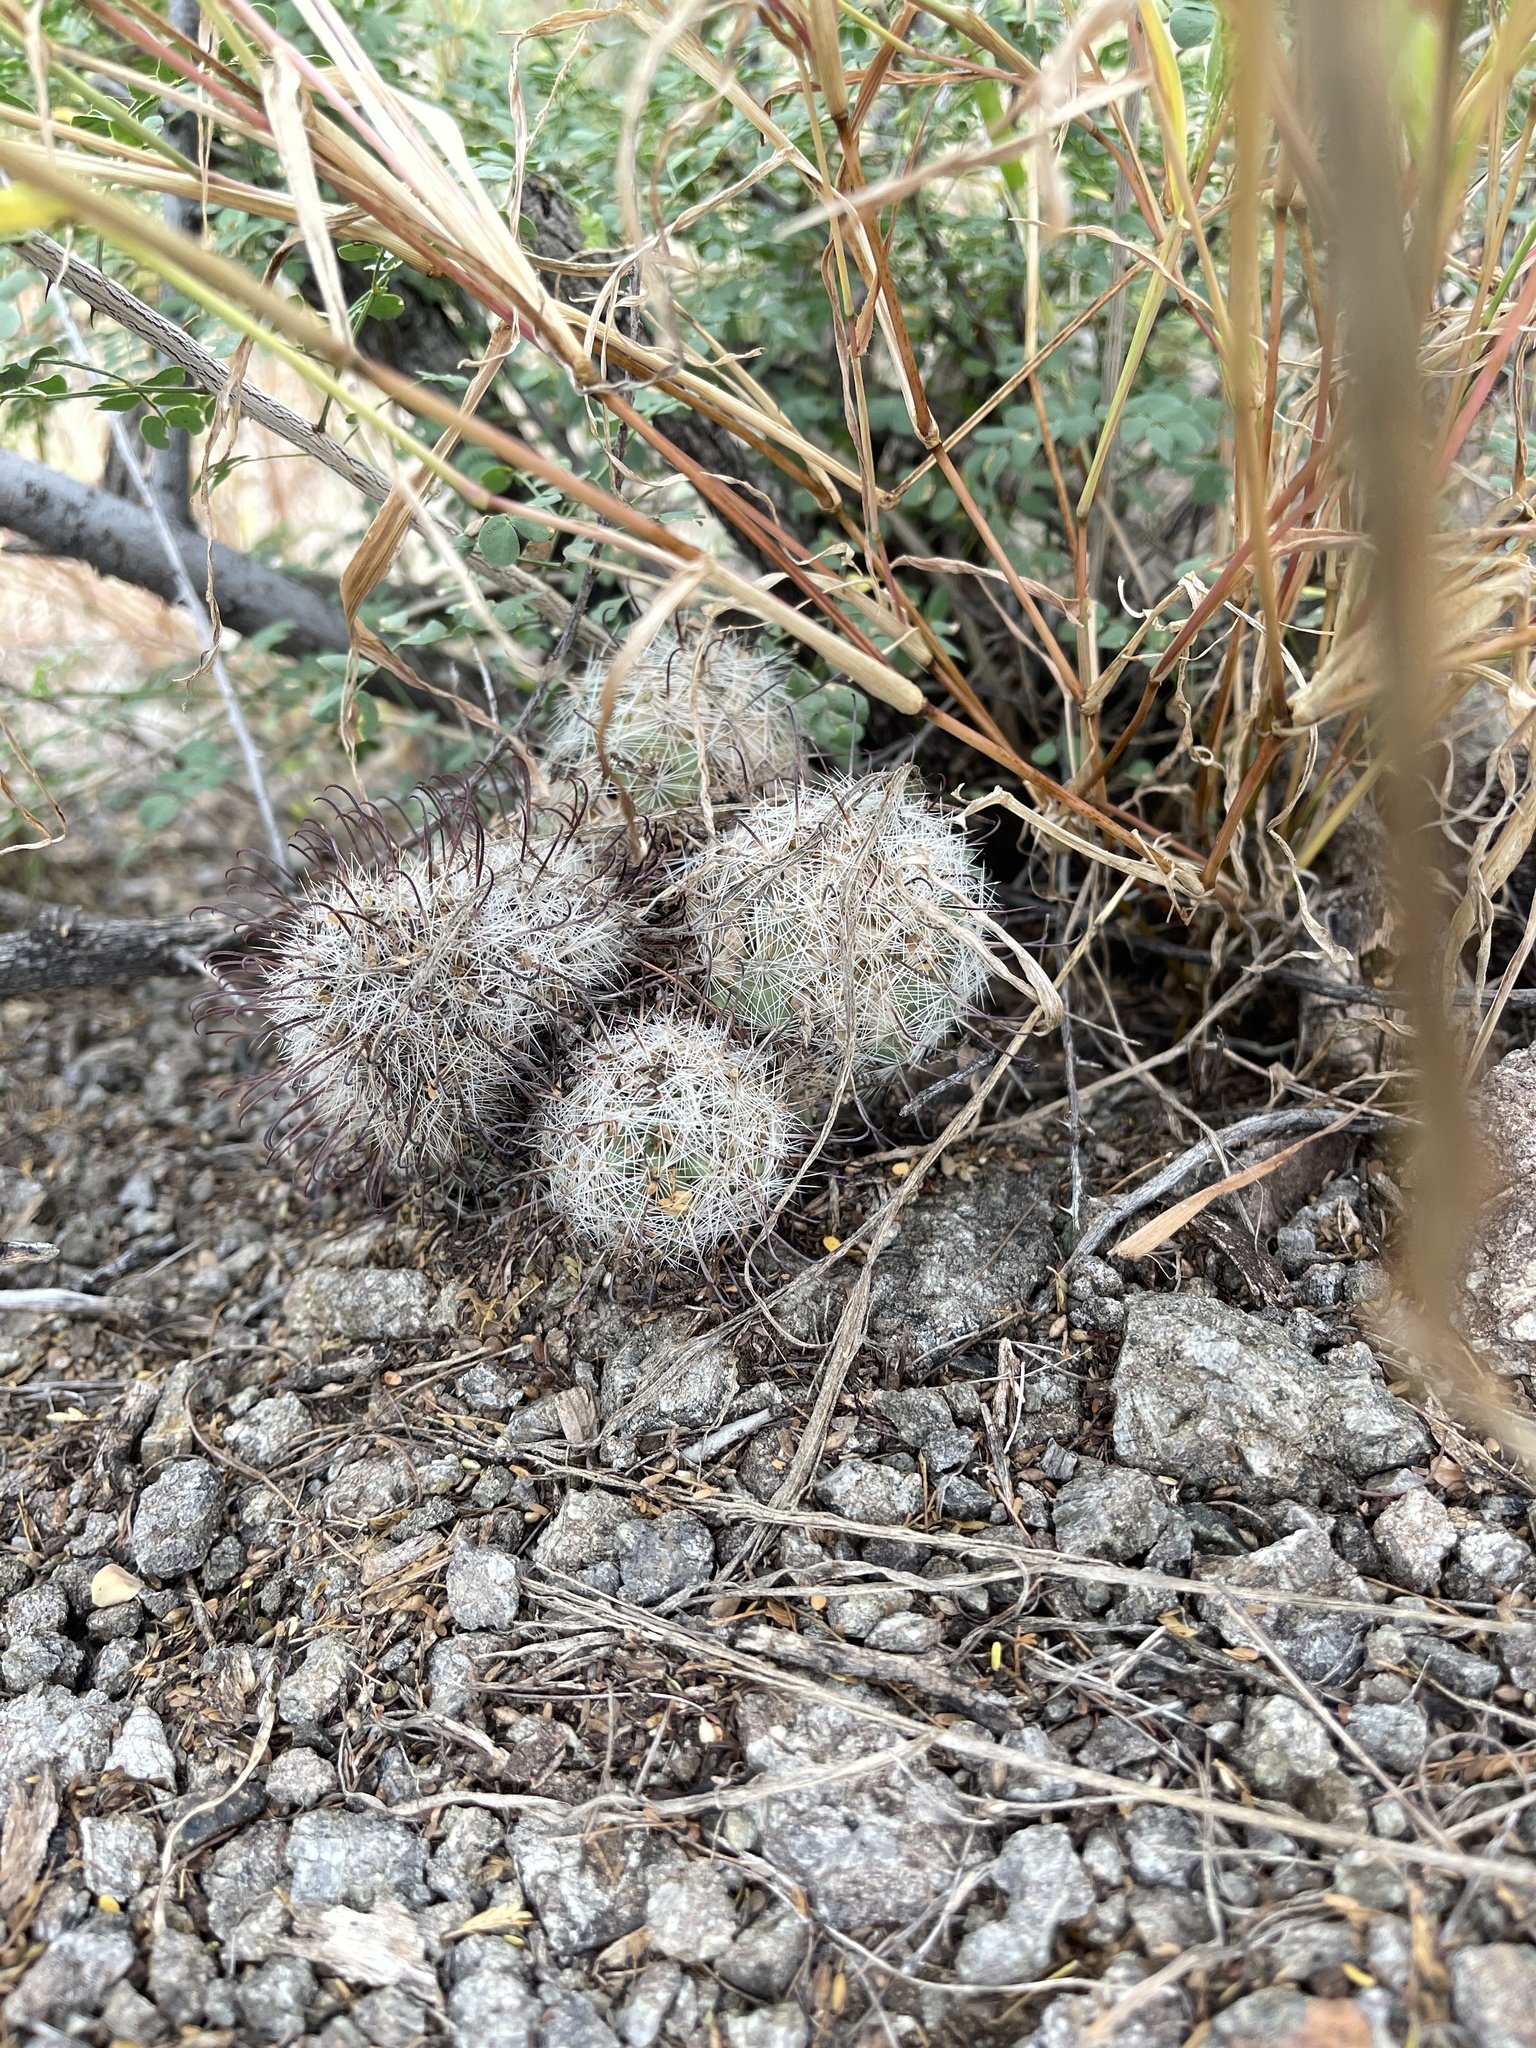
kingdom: Plantae
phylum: Tracheophyta
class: Magnoliopsida
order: Caryophyllales
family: Cactaceae
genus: Cochemiea
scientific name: Cochemiea grahamii
